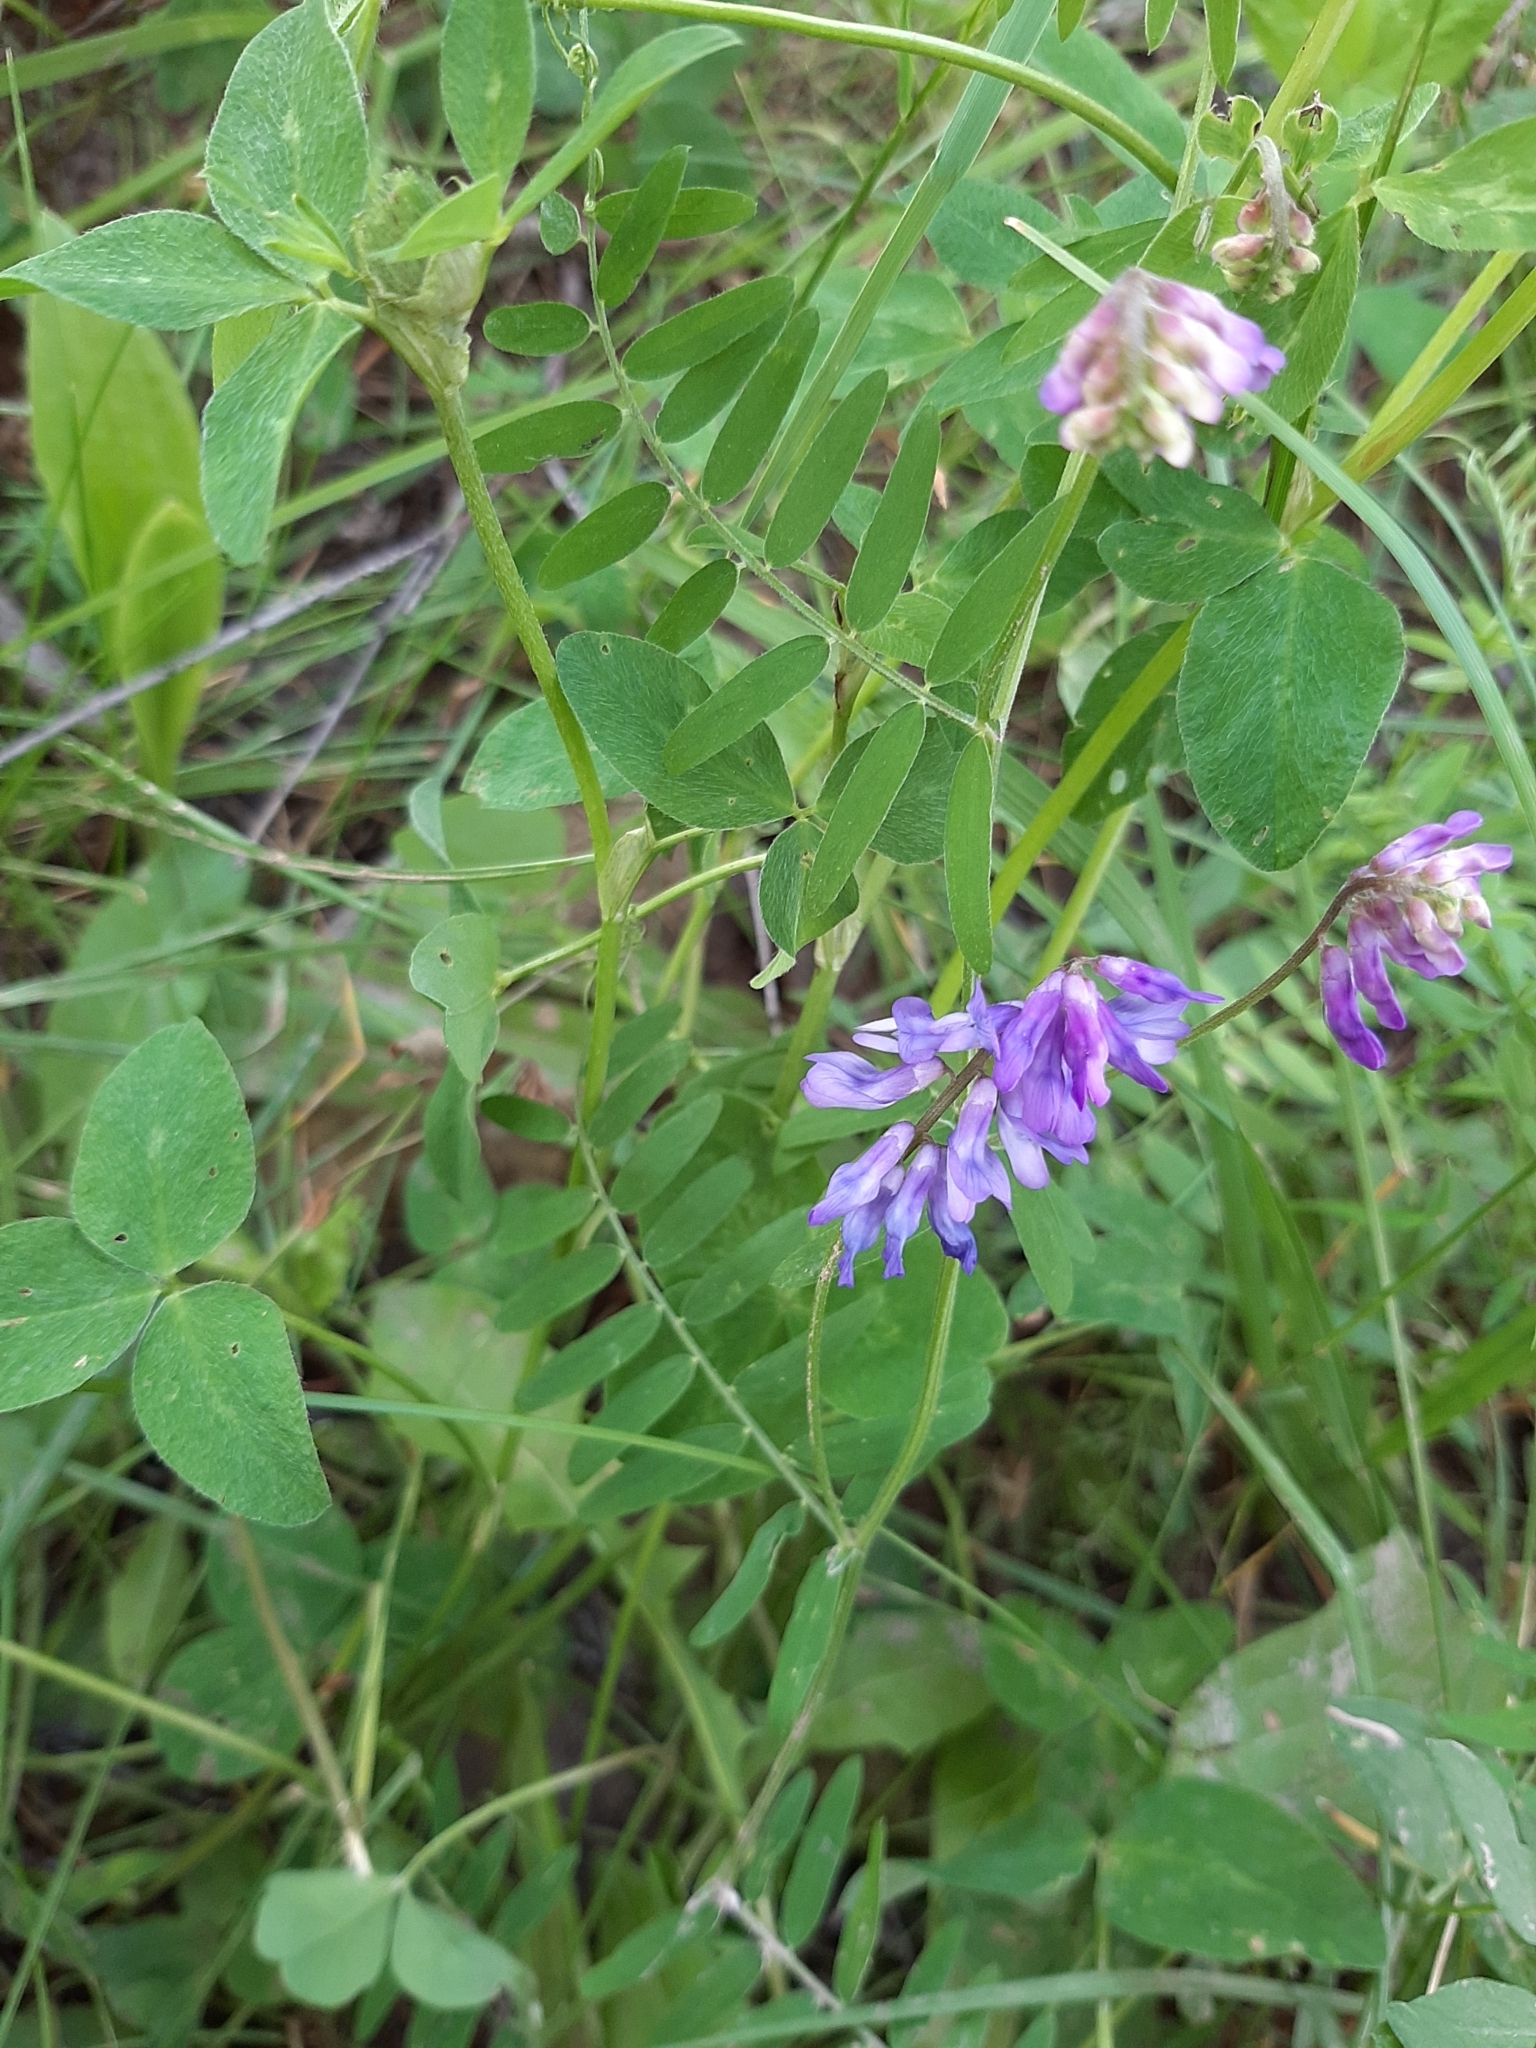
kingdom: Plantae
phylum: Tracheophyta
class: Magnoliopsida
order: Fabales
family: Fabaceae
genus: Vicia
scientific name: Vicia cracca
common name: Bird vetch
